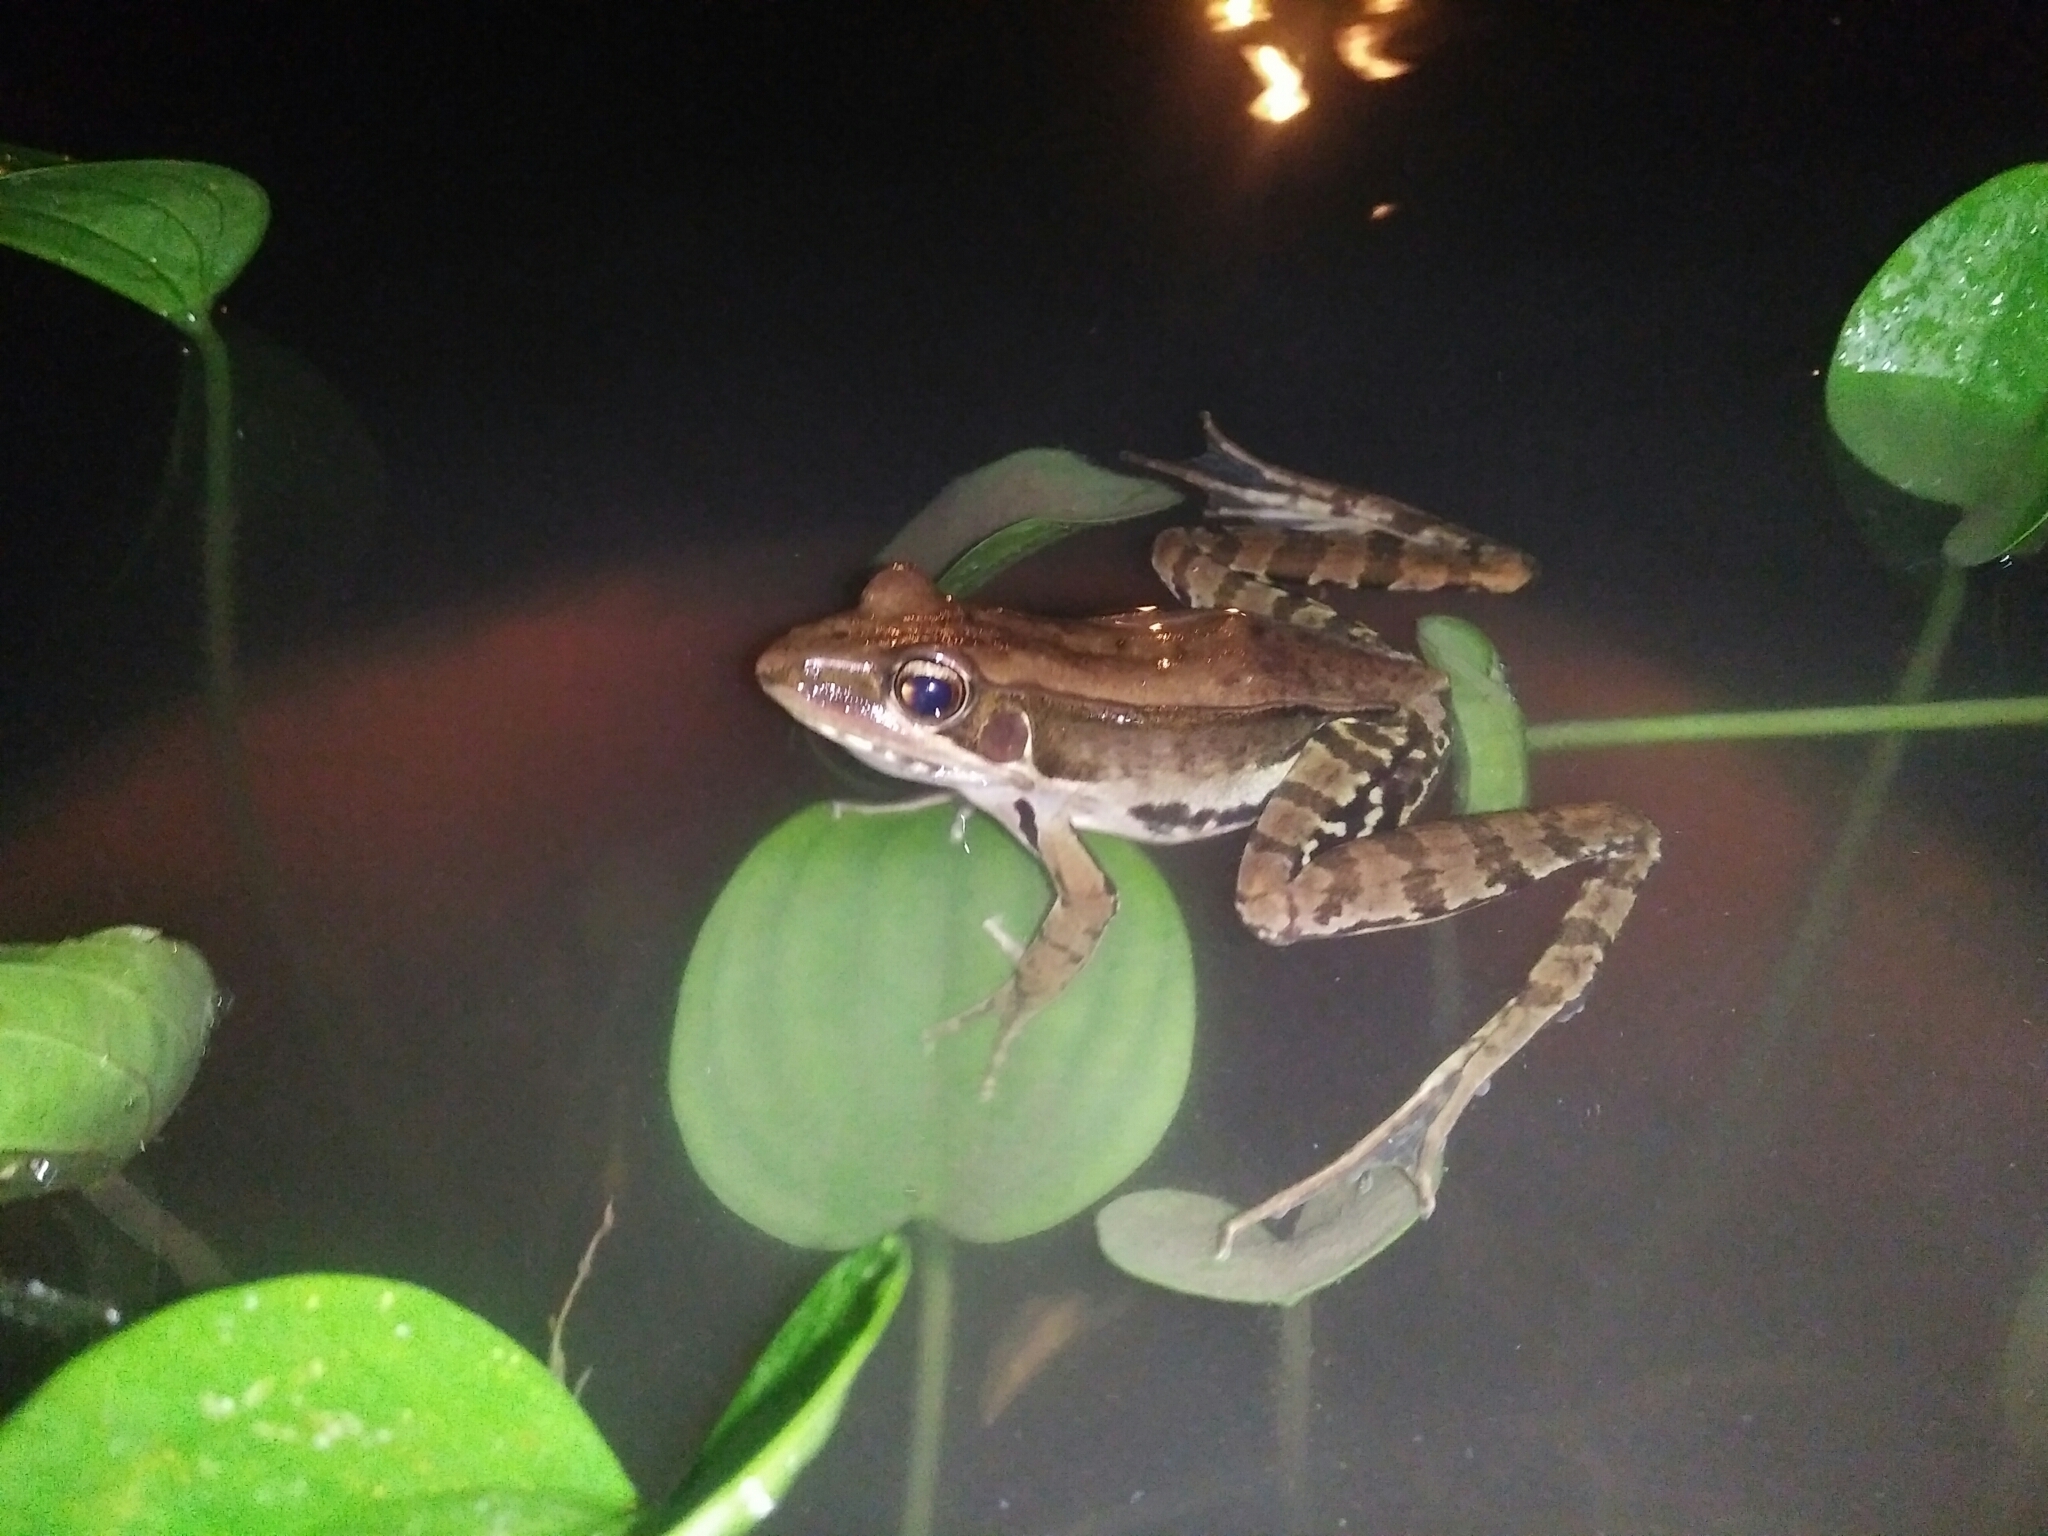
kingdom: Animalia
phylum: Chordata
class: Amphibia
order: Anura
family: Ranidae
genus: Sylvirana
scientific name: Sylvirana guentheri
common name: Guenther's amoy frog
